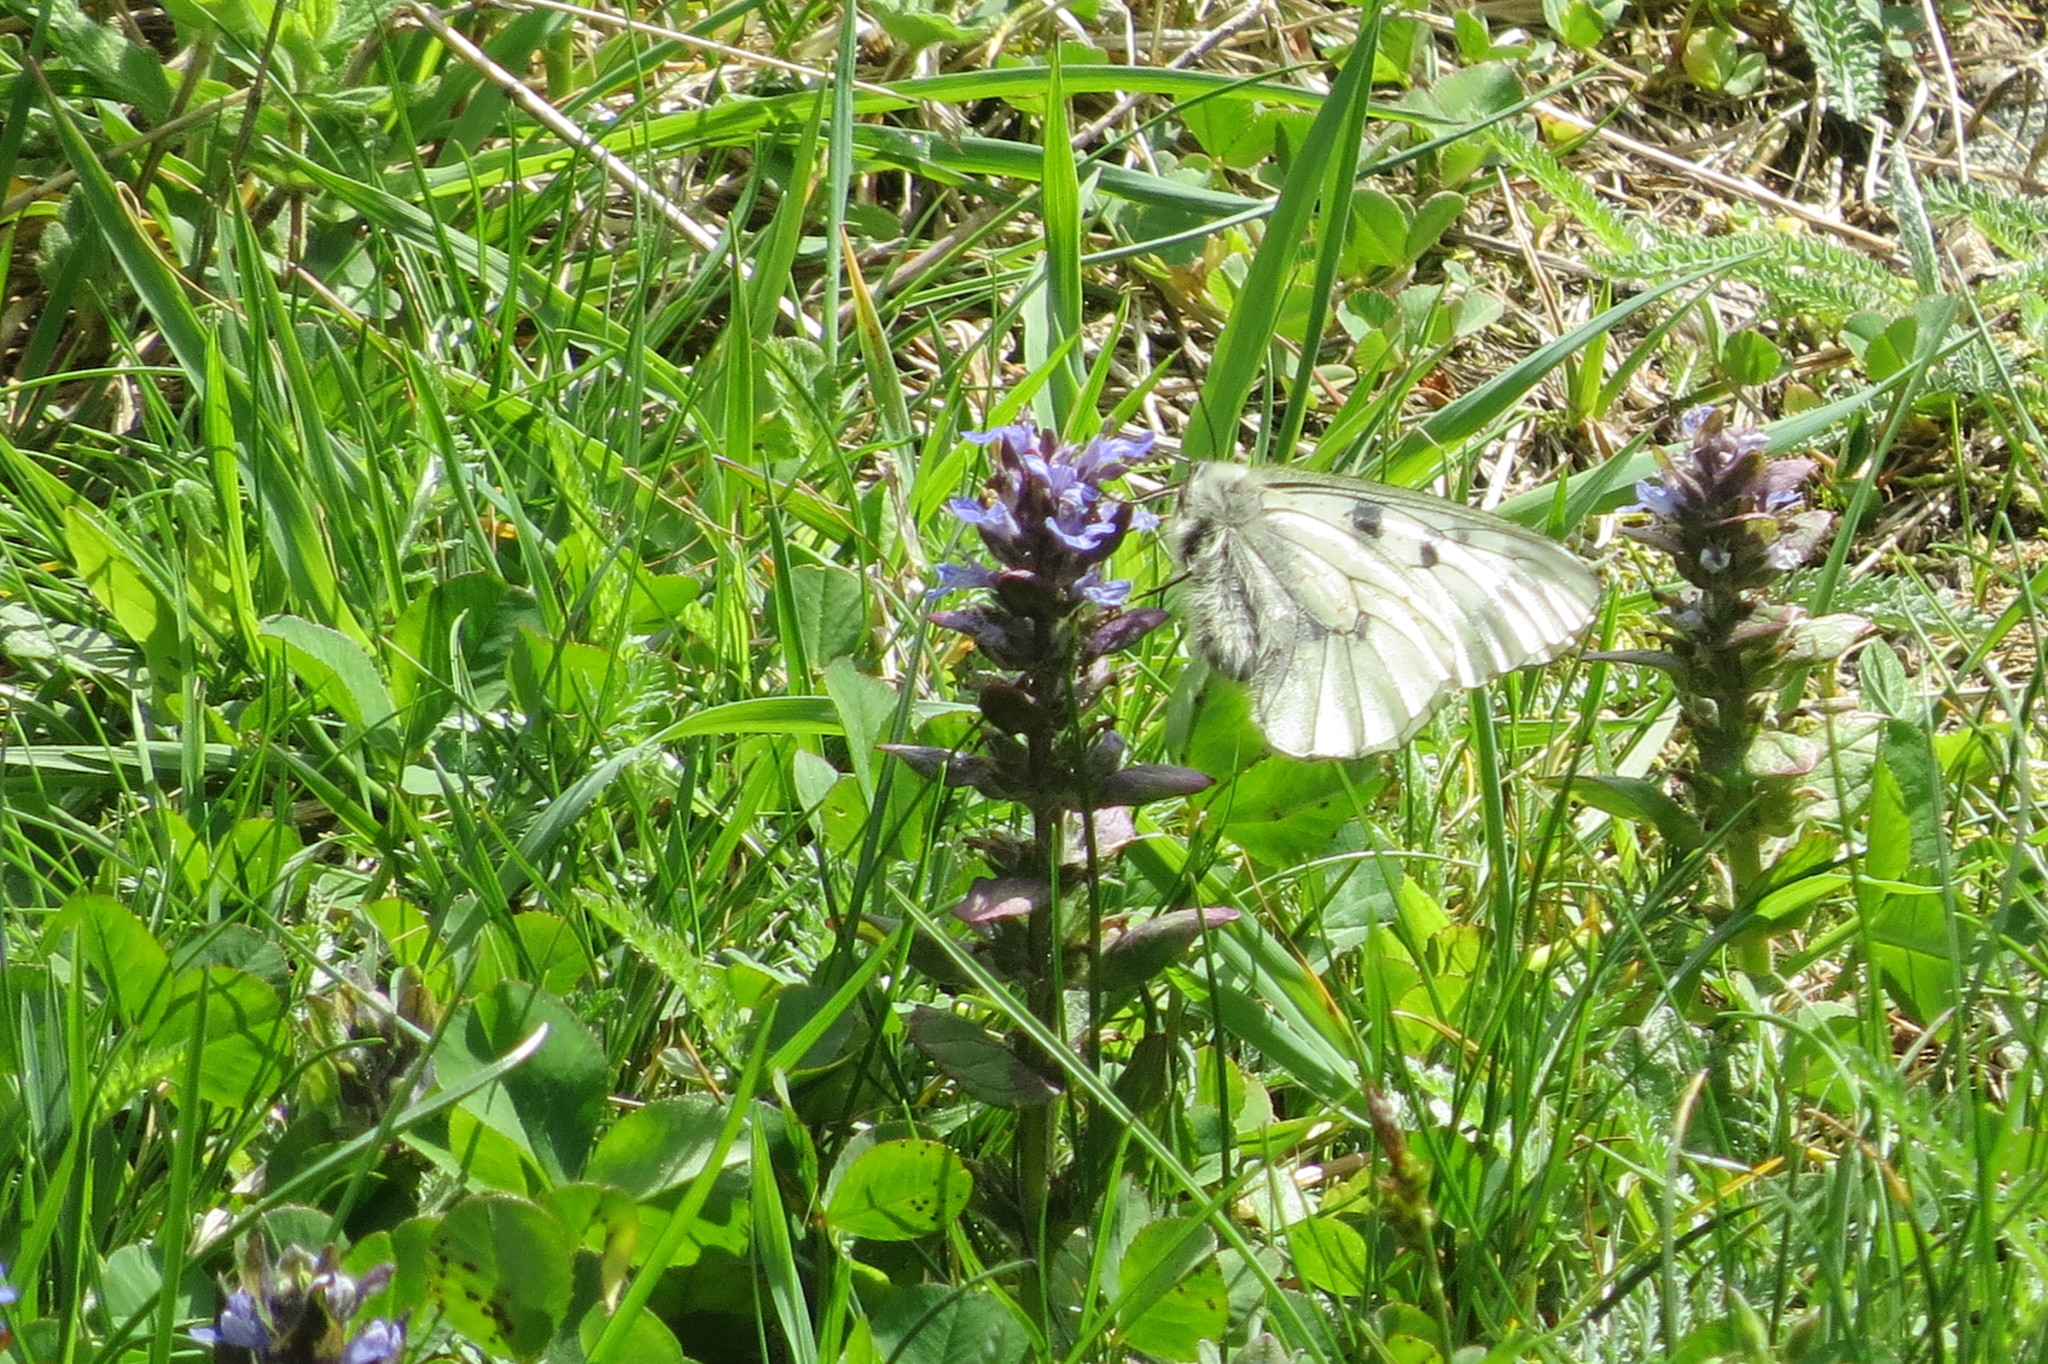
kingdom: Animalia
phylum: Arthropoda
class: Insecta
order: Lepidoptera
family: Papilionidae
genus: Parnassius
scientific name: Parnassius mnemosyne
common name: Clouded apollo
